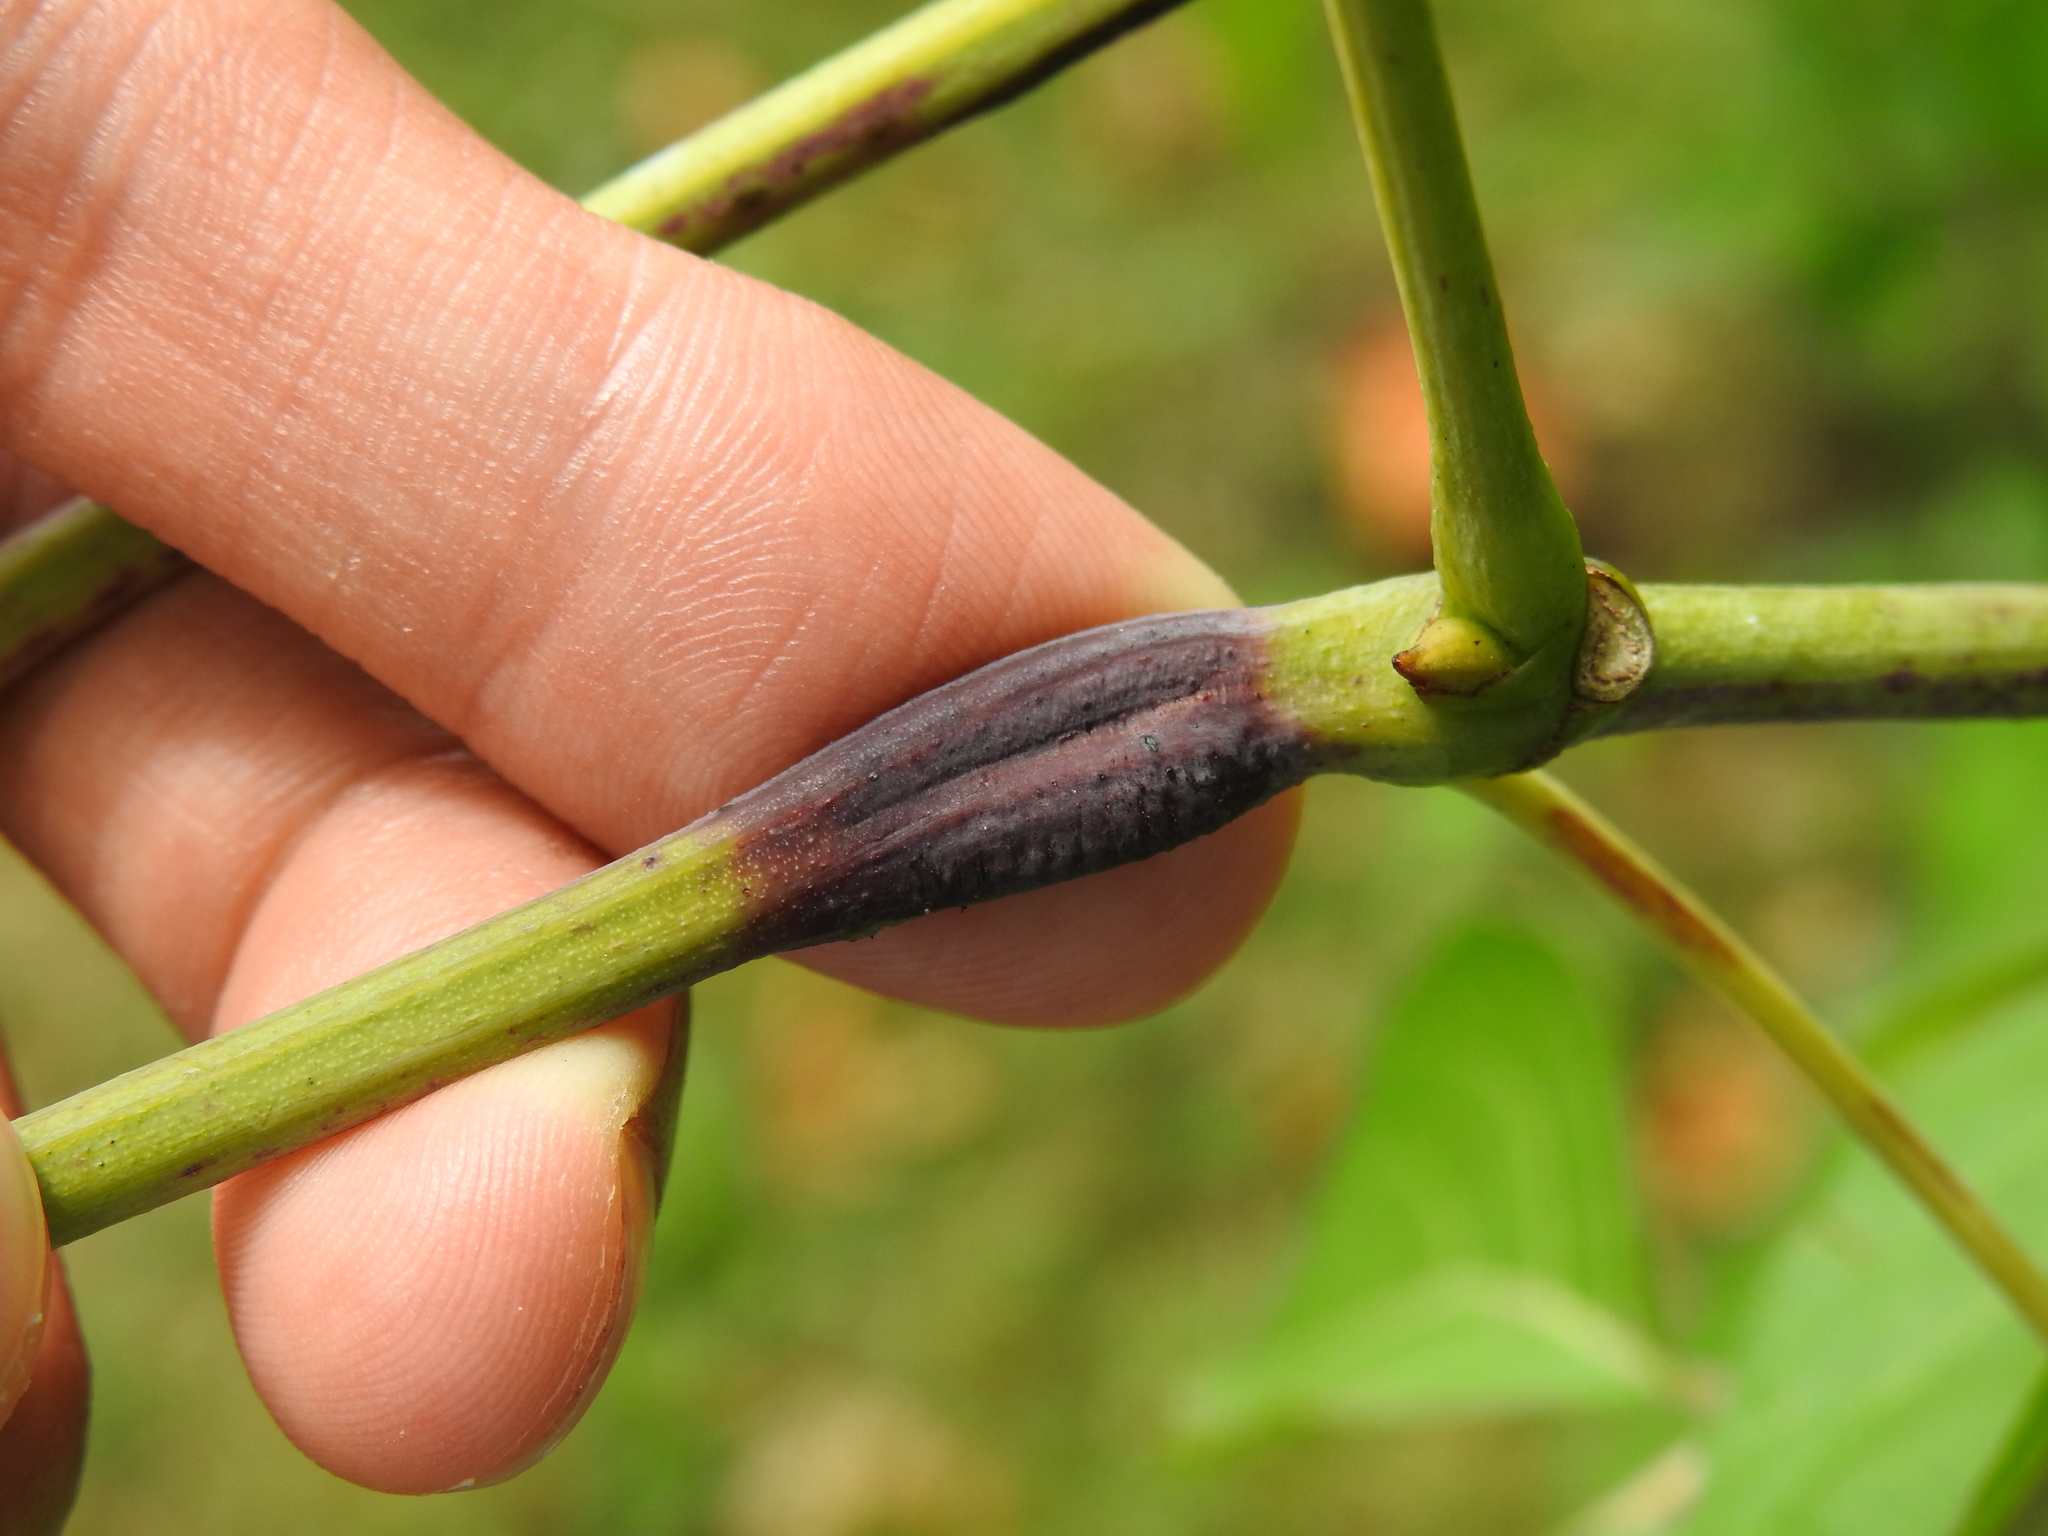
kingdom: Animalia
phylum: Arthropoda
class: Insecta
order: Coleoptera
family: Curculionidae
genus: Ampeloglypter
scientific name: Ampeloglypter sesostris
